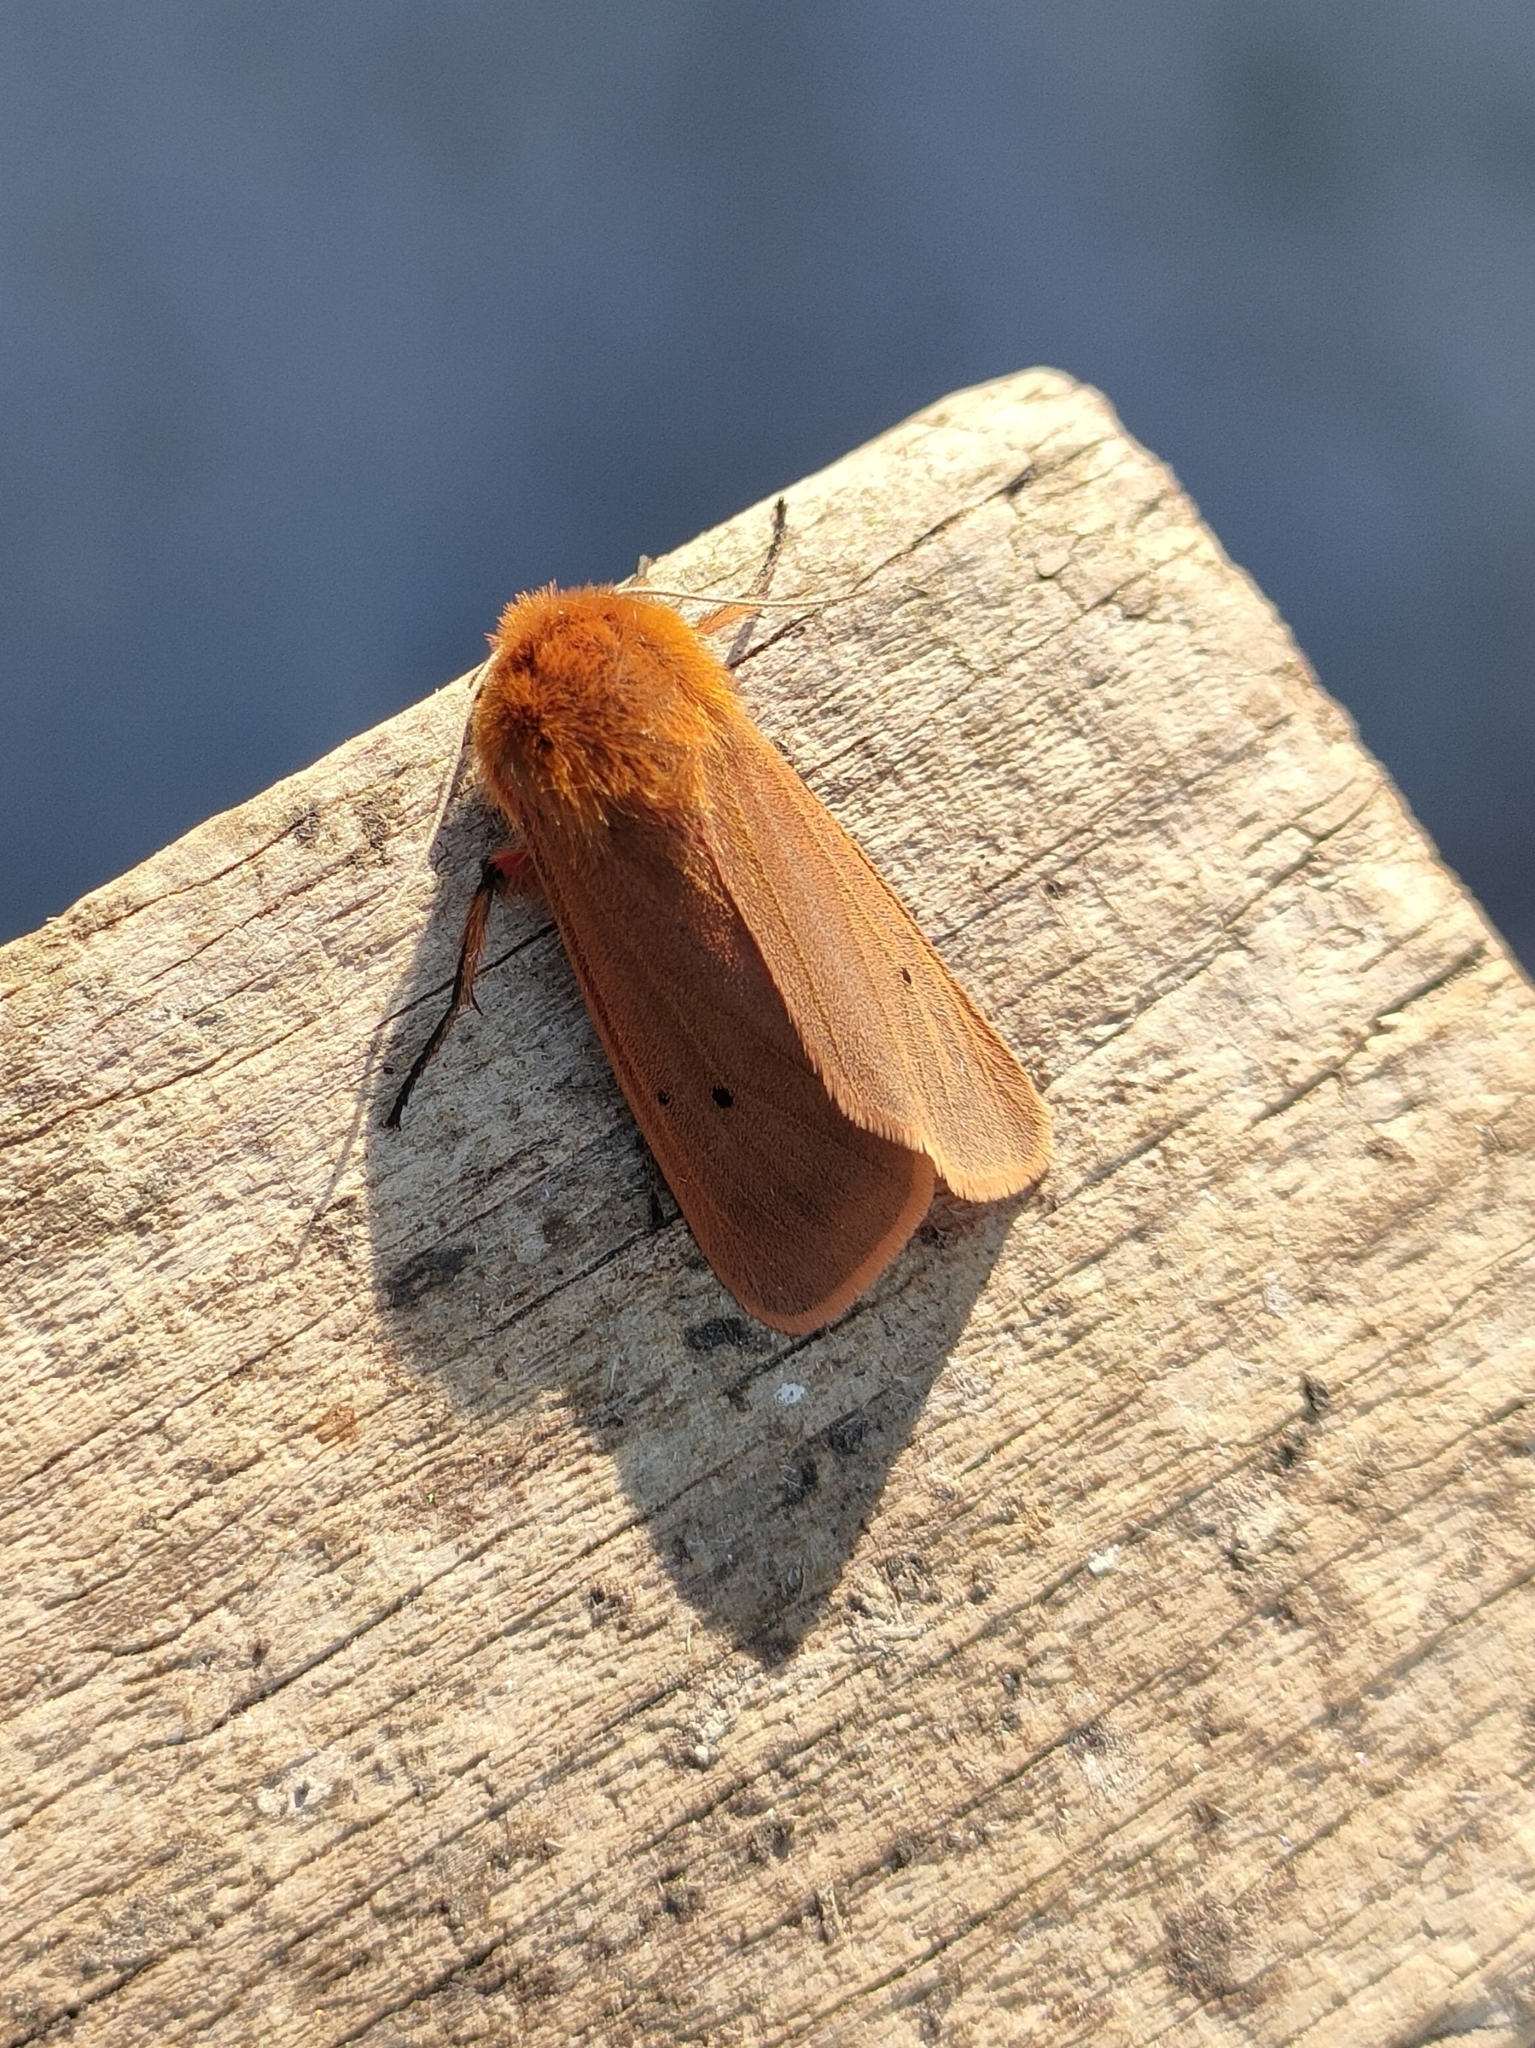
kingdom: Animalia
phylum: Arthropoda
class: Insecta
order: Lepidoptera
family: Erebidae
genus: Phragmatobia
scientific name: Phragmatobia fuliginosa
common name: Ruby tiger
